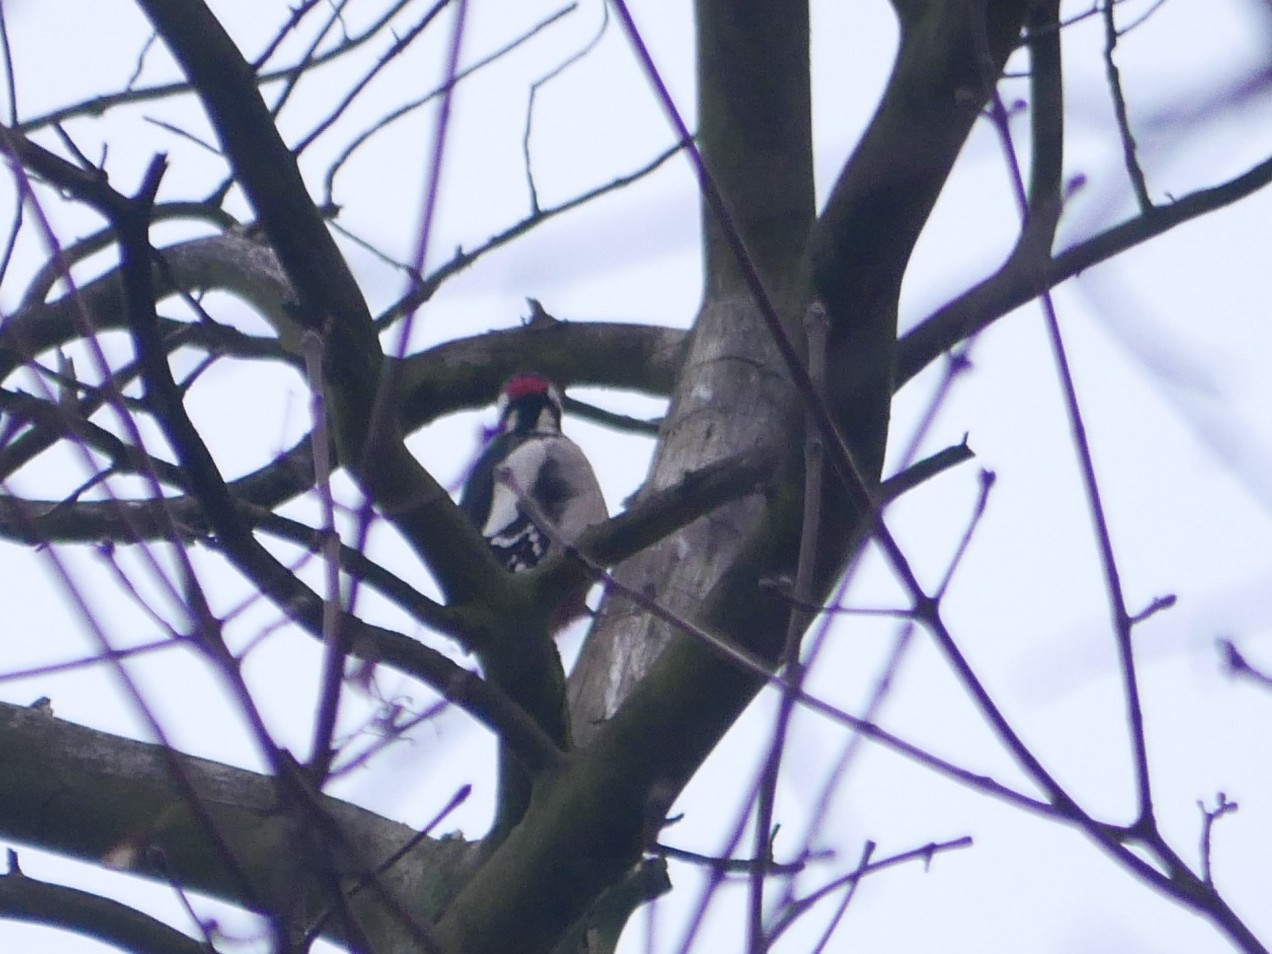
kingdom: Animalia
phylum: Chordata
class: Aves
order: Piciformes
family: Picidae
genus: Dendrocopos
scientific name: Dendrocopos major
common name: Great spotted woodpecker
